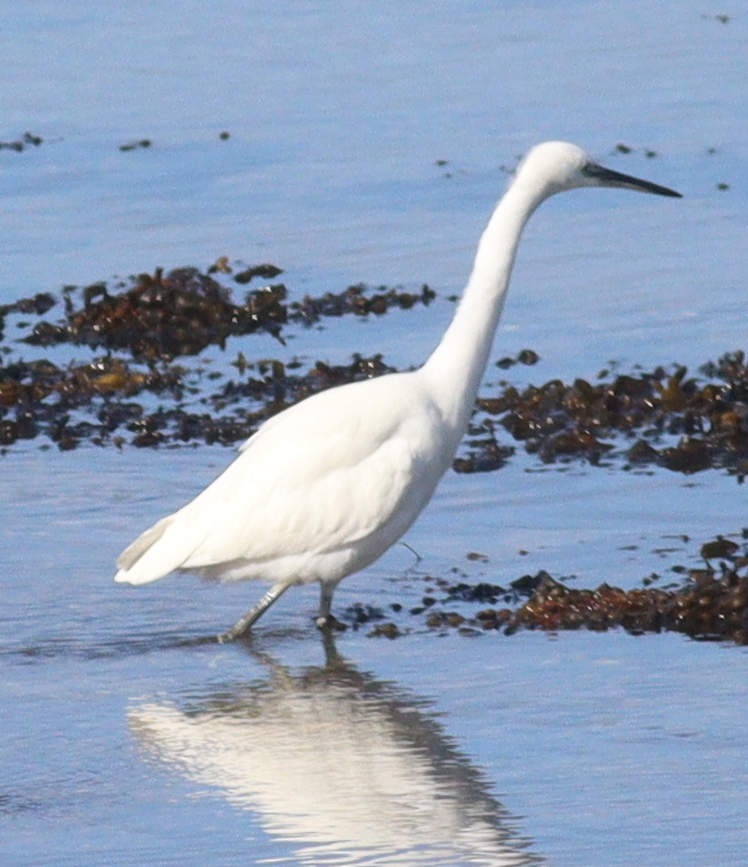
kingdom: Animalia
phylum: Chordata
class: Aves
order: Pelecaniformes
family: Ardeidae
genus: Egretta
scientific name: Egretta garzetta
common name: Little egret
